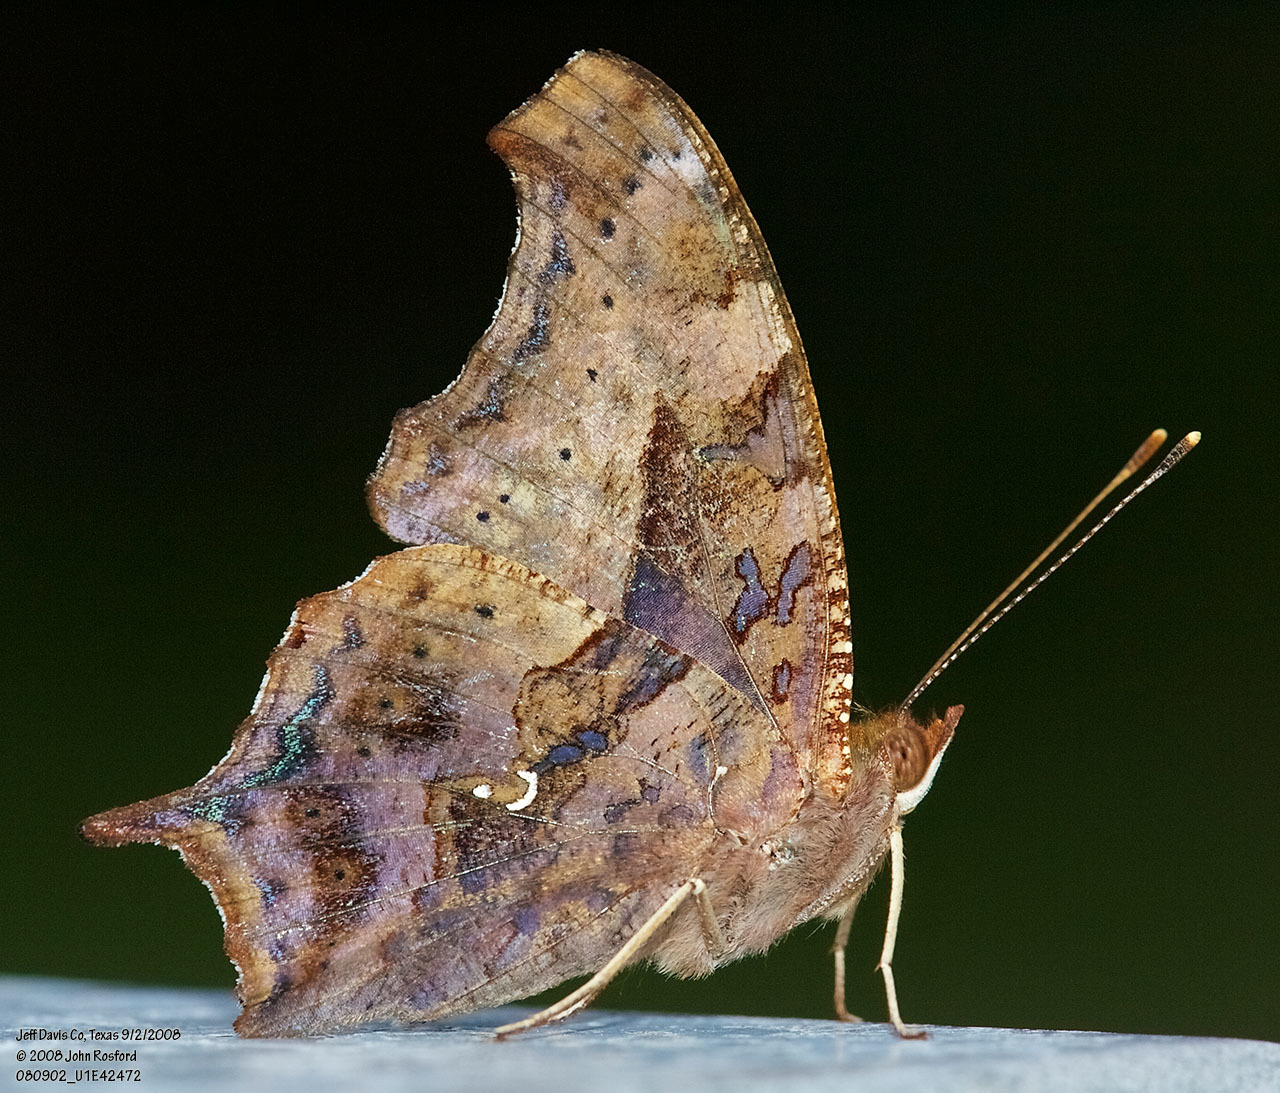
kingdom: Animalia
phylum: Arthropoda
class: Insecta
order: Lepidoptera
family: Nymphalidae
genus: Polygonia
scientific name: Polygonia interrogationis
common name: Question mark
